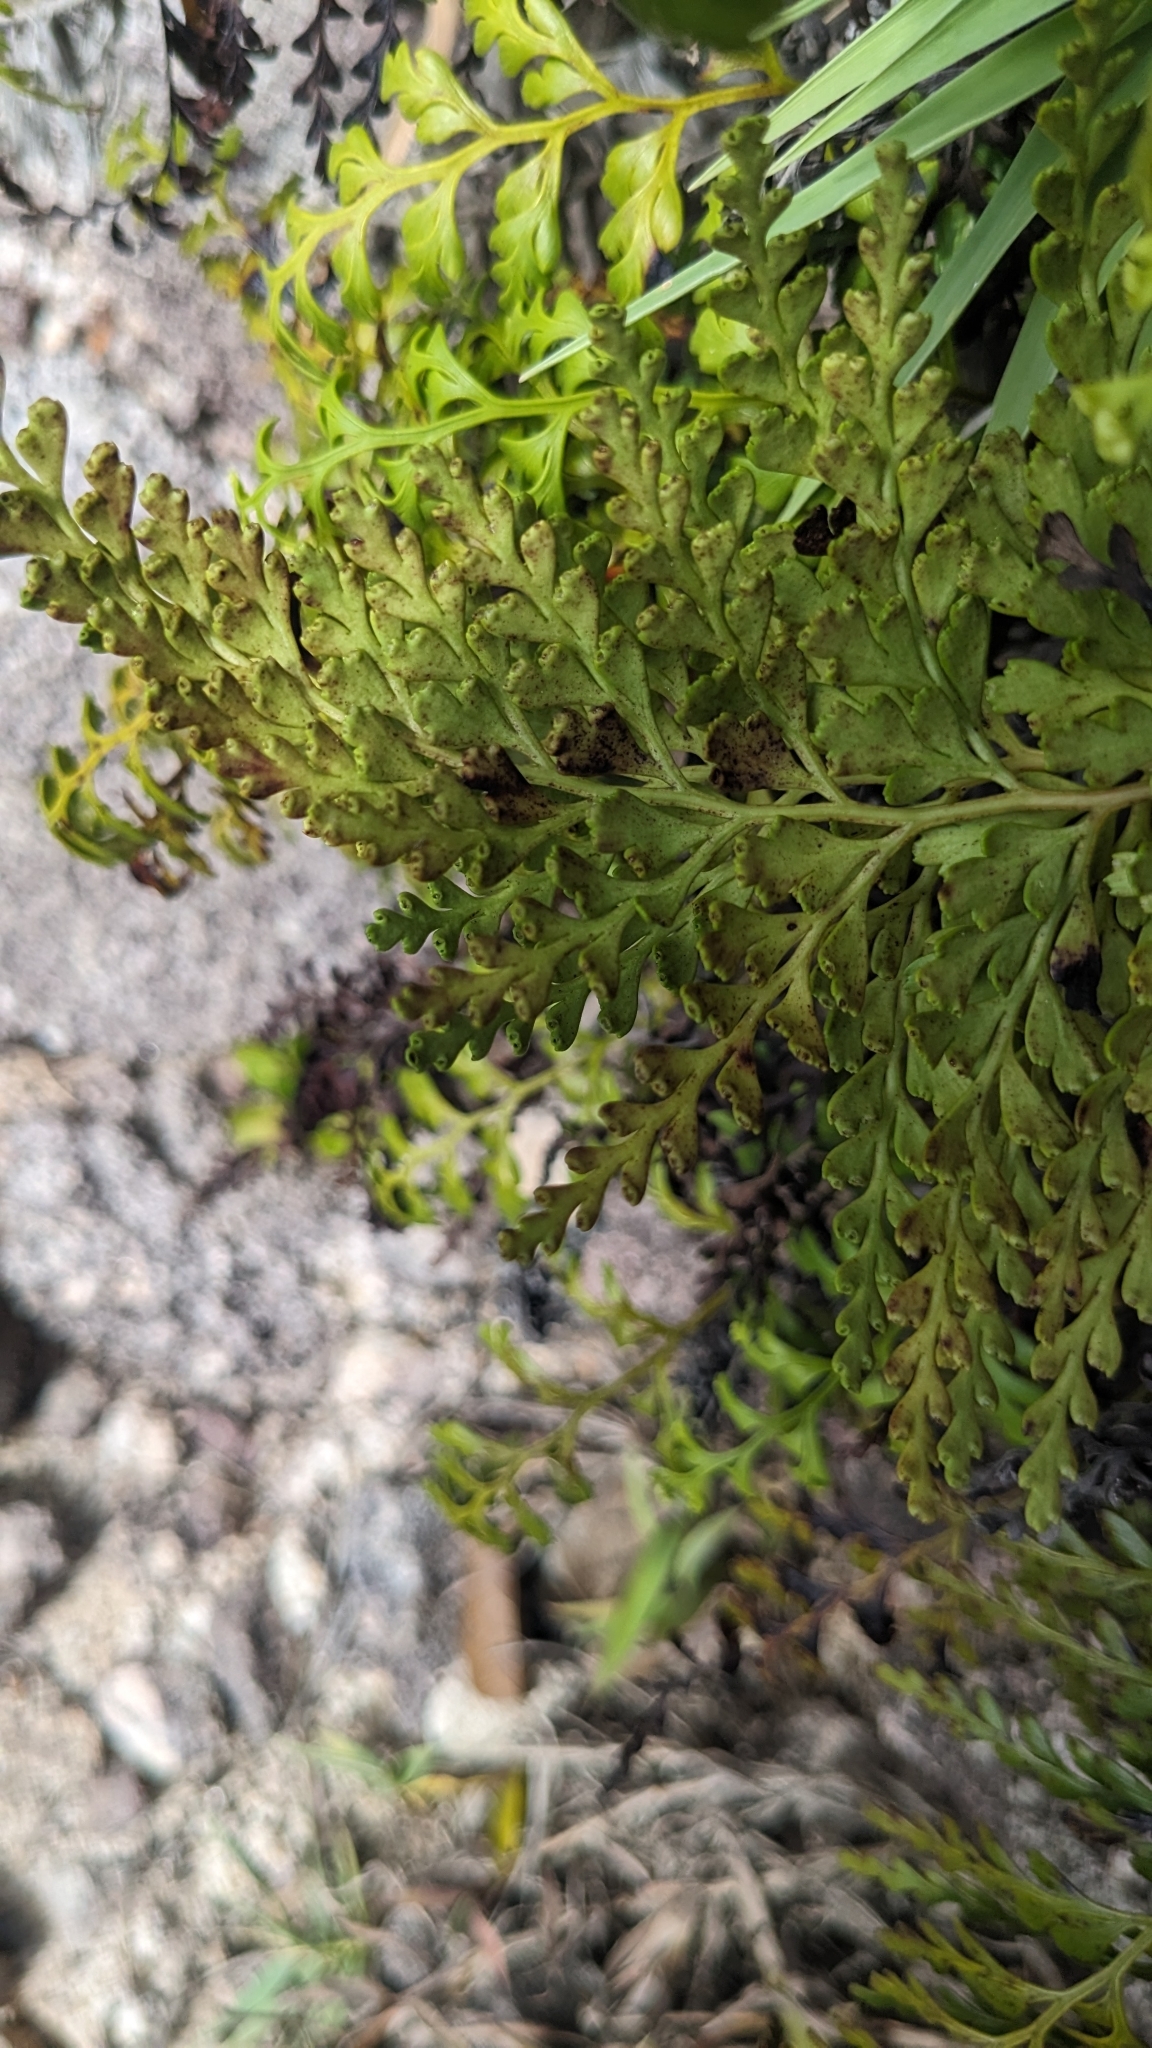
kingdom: Plantae
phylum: Tracheophyta
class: Polypodiopsida
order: Polypodiales
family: Lindsaeaceae
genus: Odontosoria
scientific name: Odontosoria biflora
